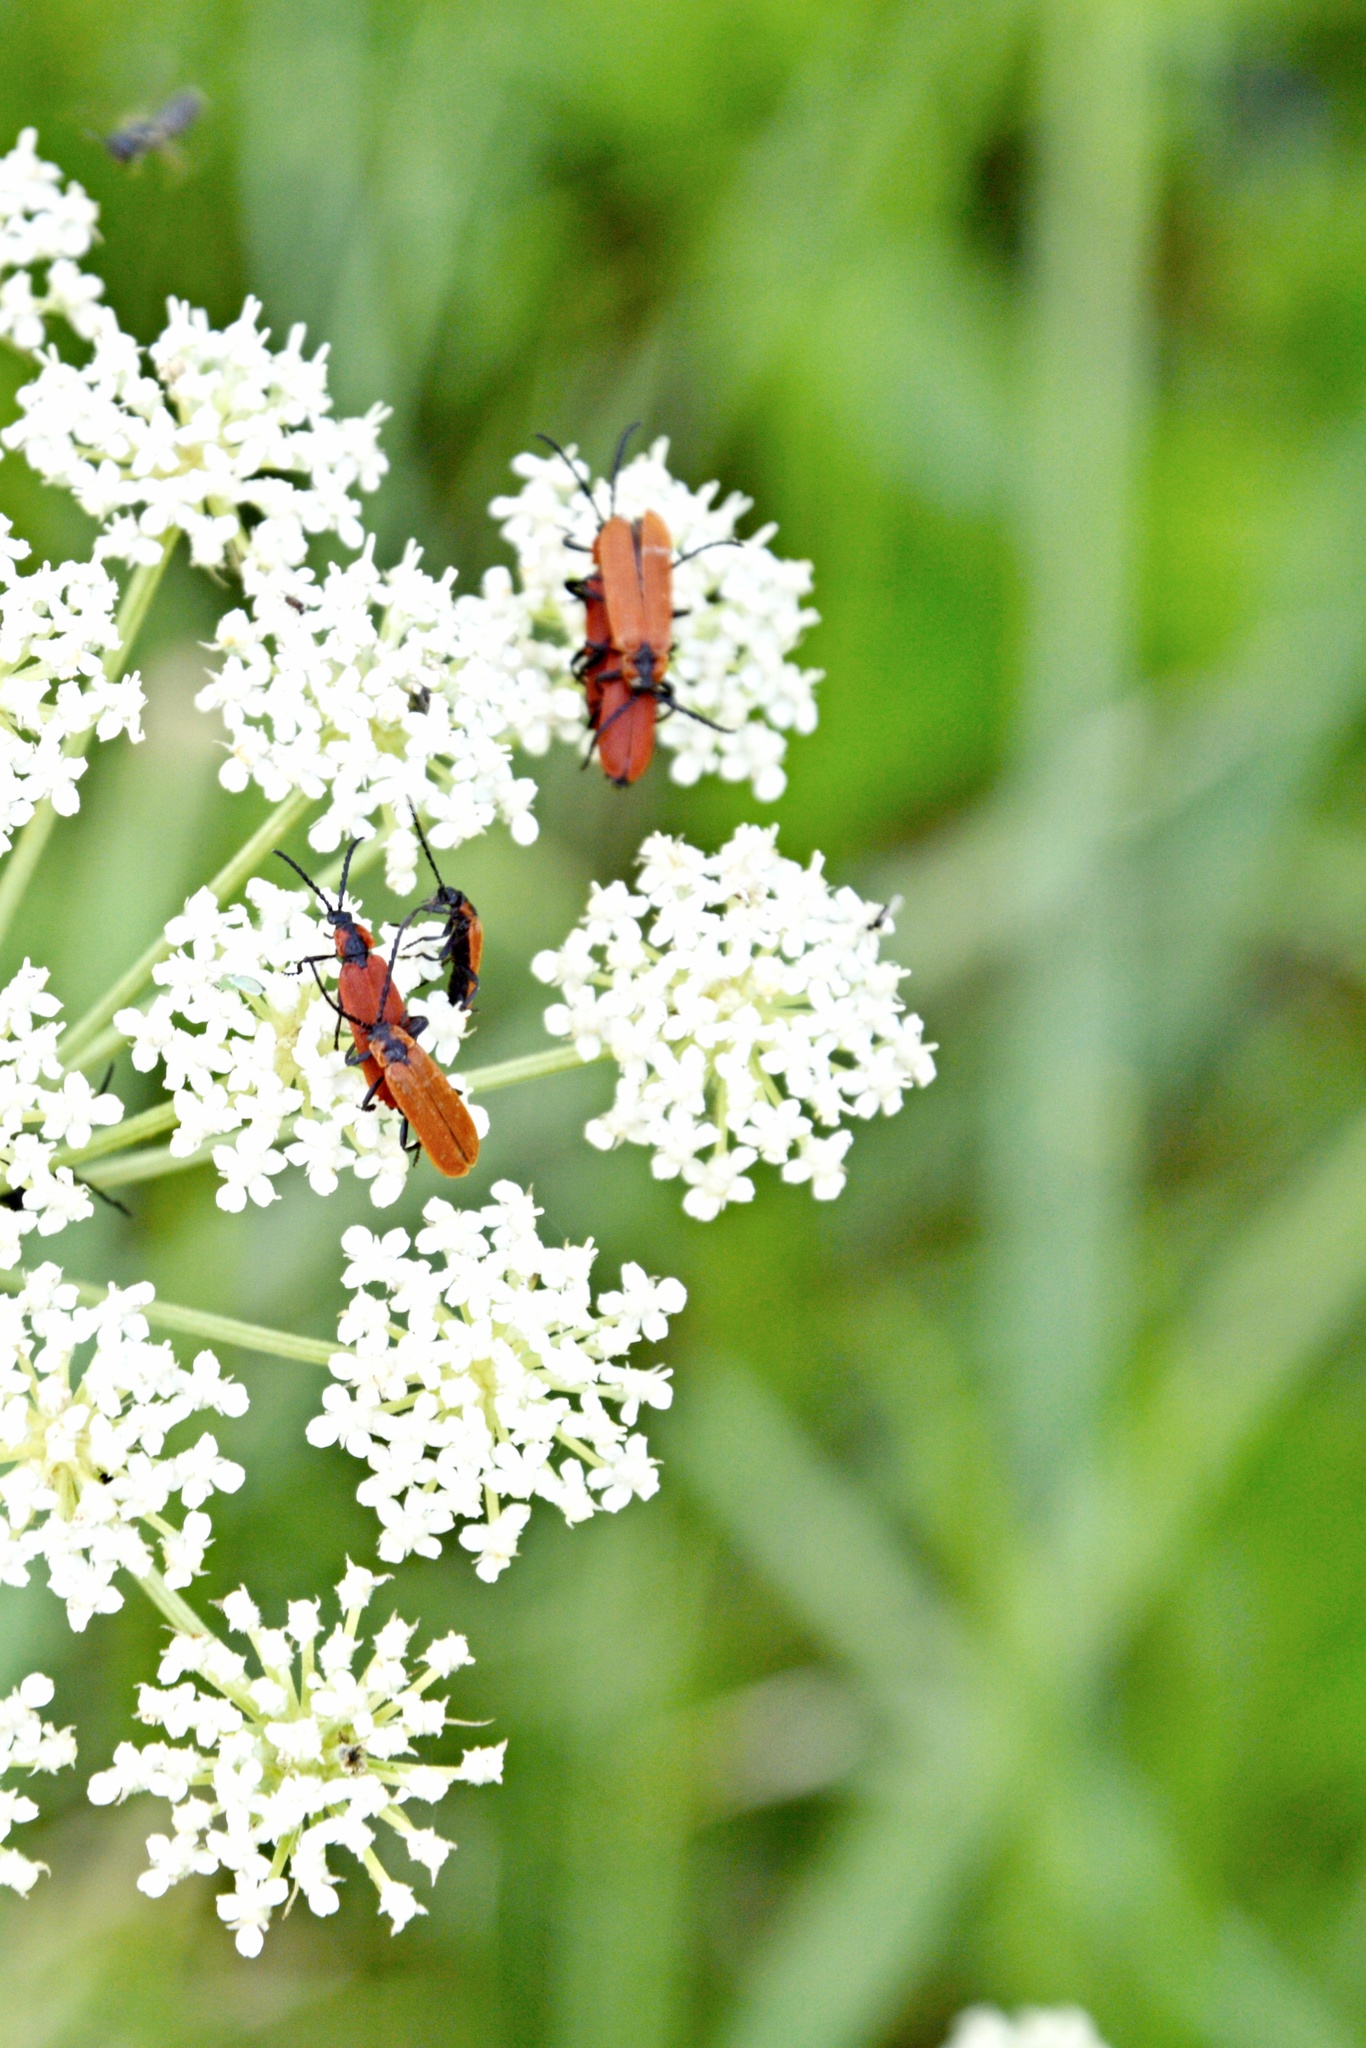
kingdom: Animalia
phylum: Arthropoda
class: Insecta
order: Coleoptera
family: Lycidae
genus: Lygistopterus
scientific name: Lygistopterus sanguineus
